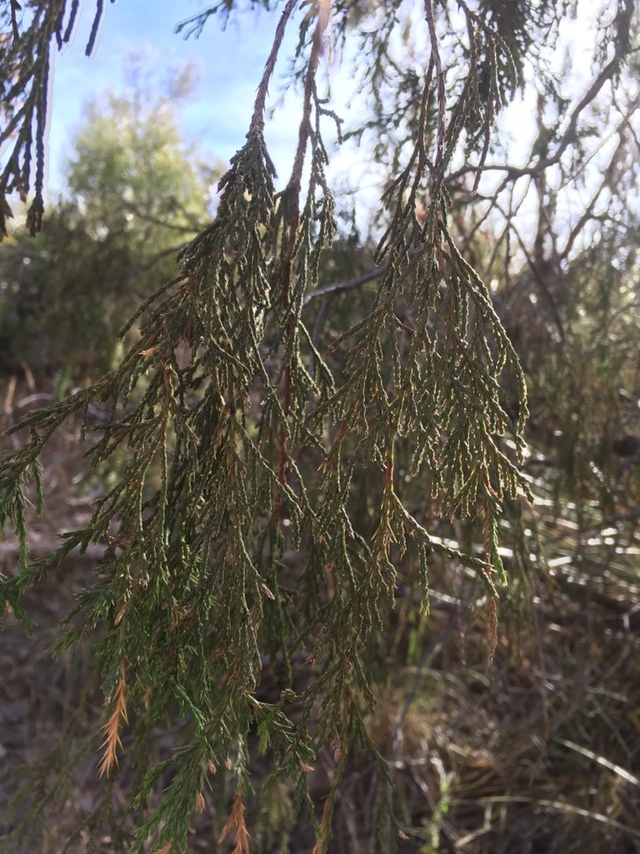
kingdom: Plantae
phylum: Tracheophyta
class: Pinopsida
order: Pinales
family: Cupressaceae
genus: Juniperus
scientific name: Juniperus flaccida
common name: Drooping juniper
